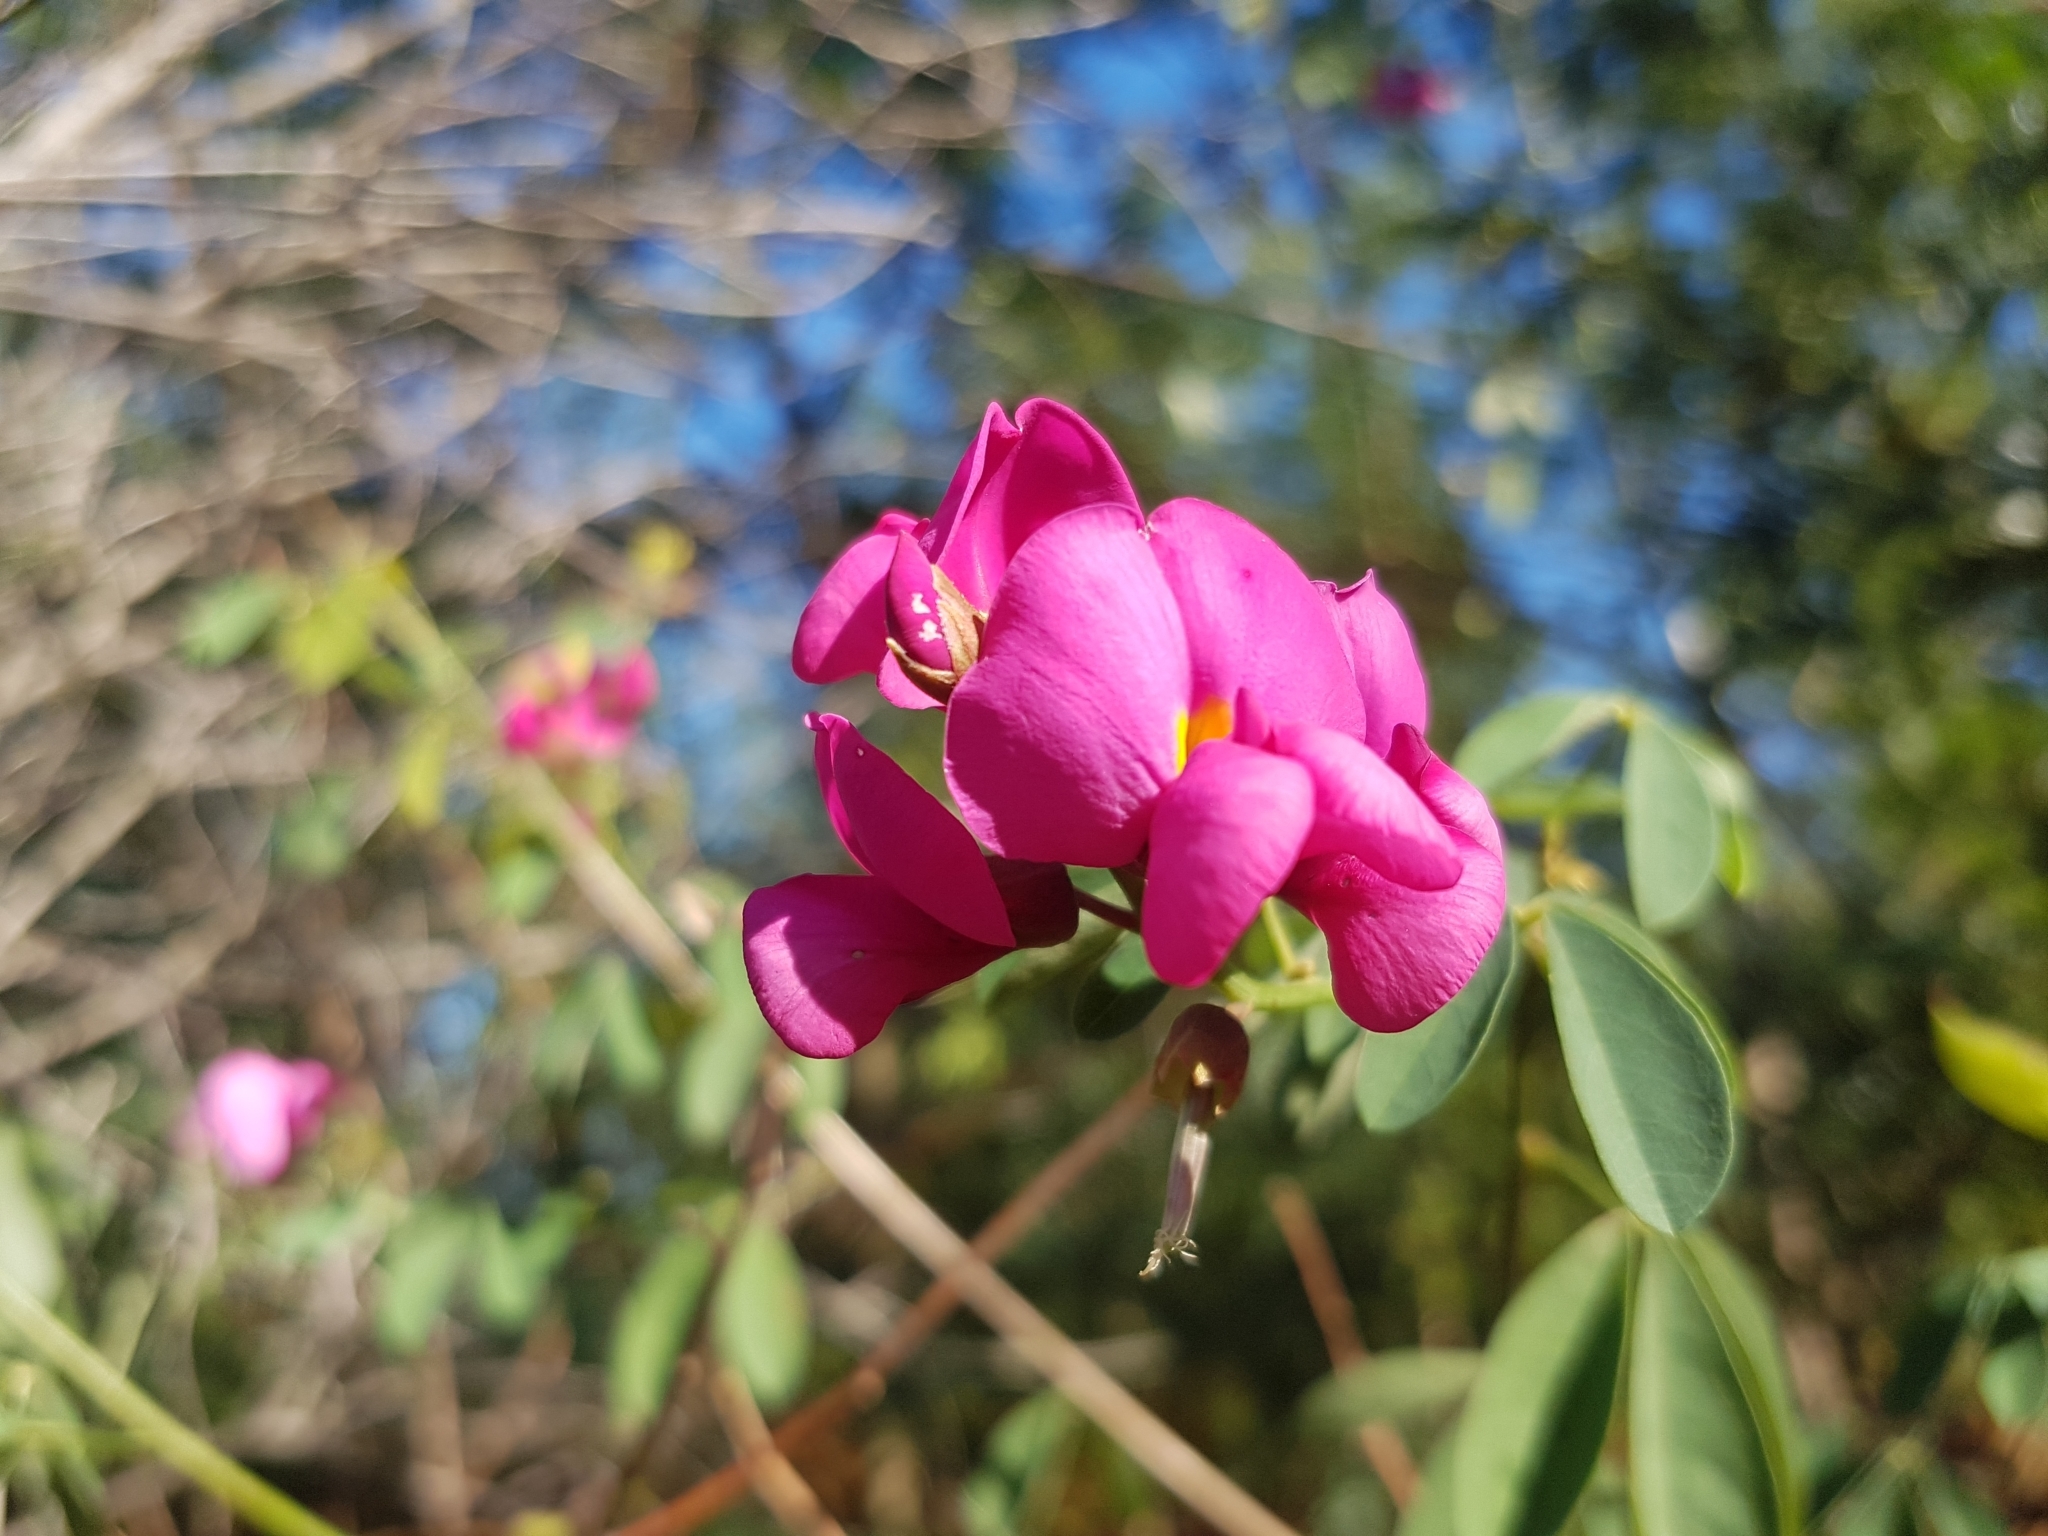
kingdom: Plantae
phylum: Tracheophyta
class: Magnoliopsida
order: Fabales
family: Fabaceae
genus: Hypocalyptus
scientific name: Hypocalyptus coluteoides
